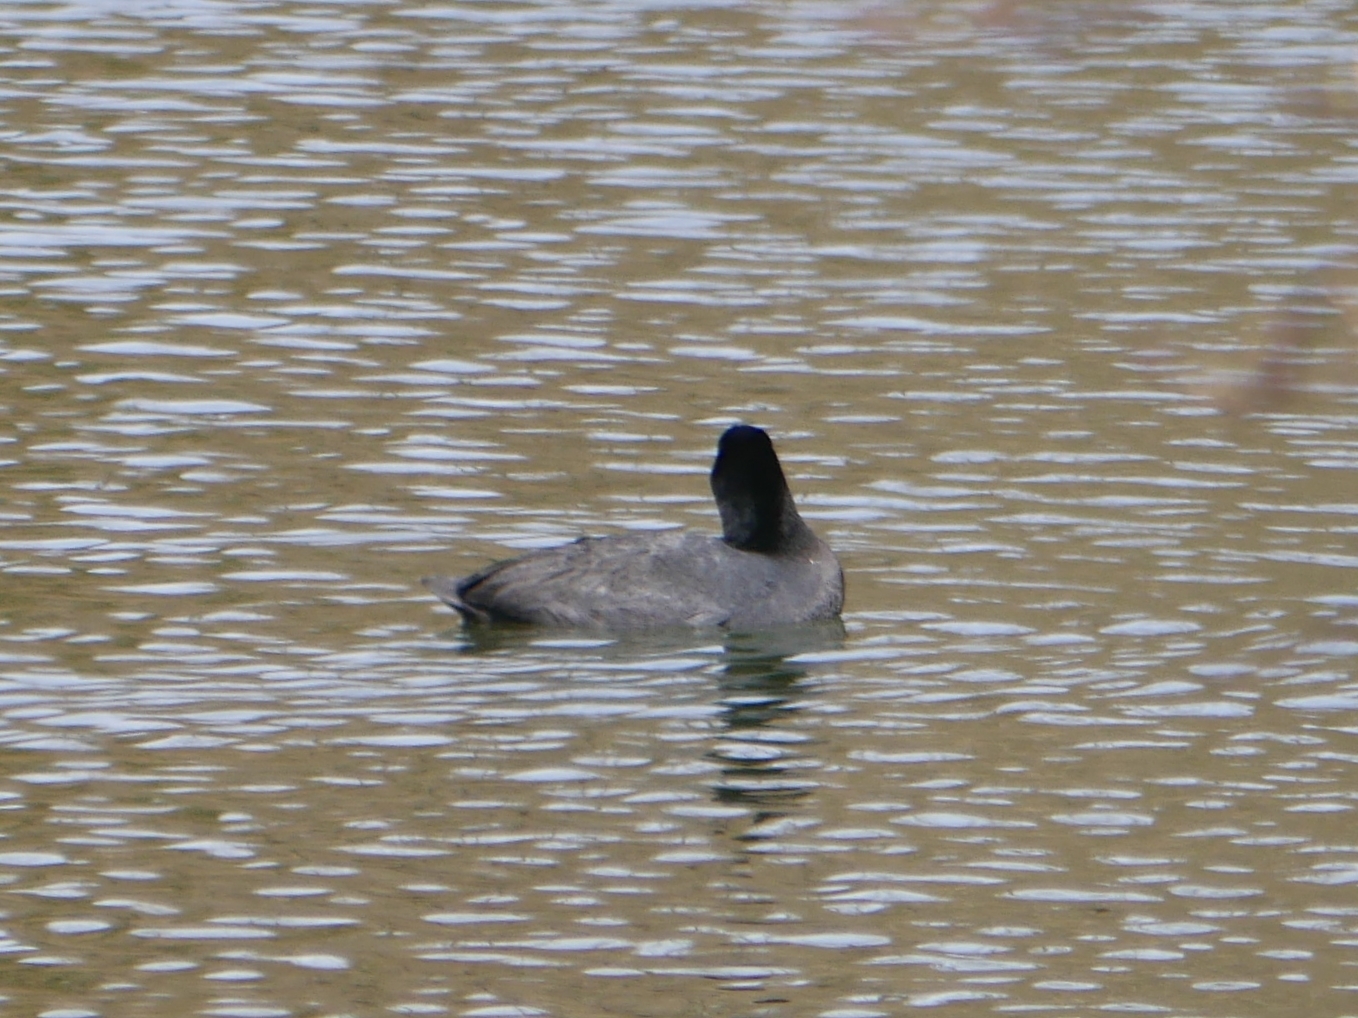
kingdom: Animalia
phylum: Chordata
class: Aves
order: Gruiformes
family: Rallidae
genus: Fulica
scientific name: Fulica atra
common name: Eurasian coot
